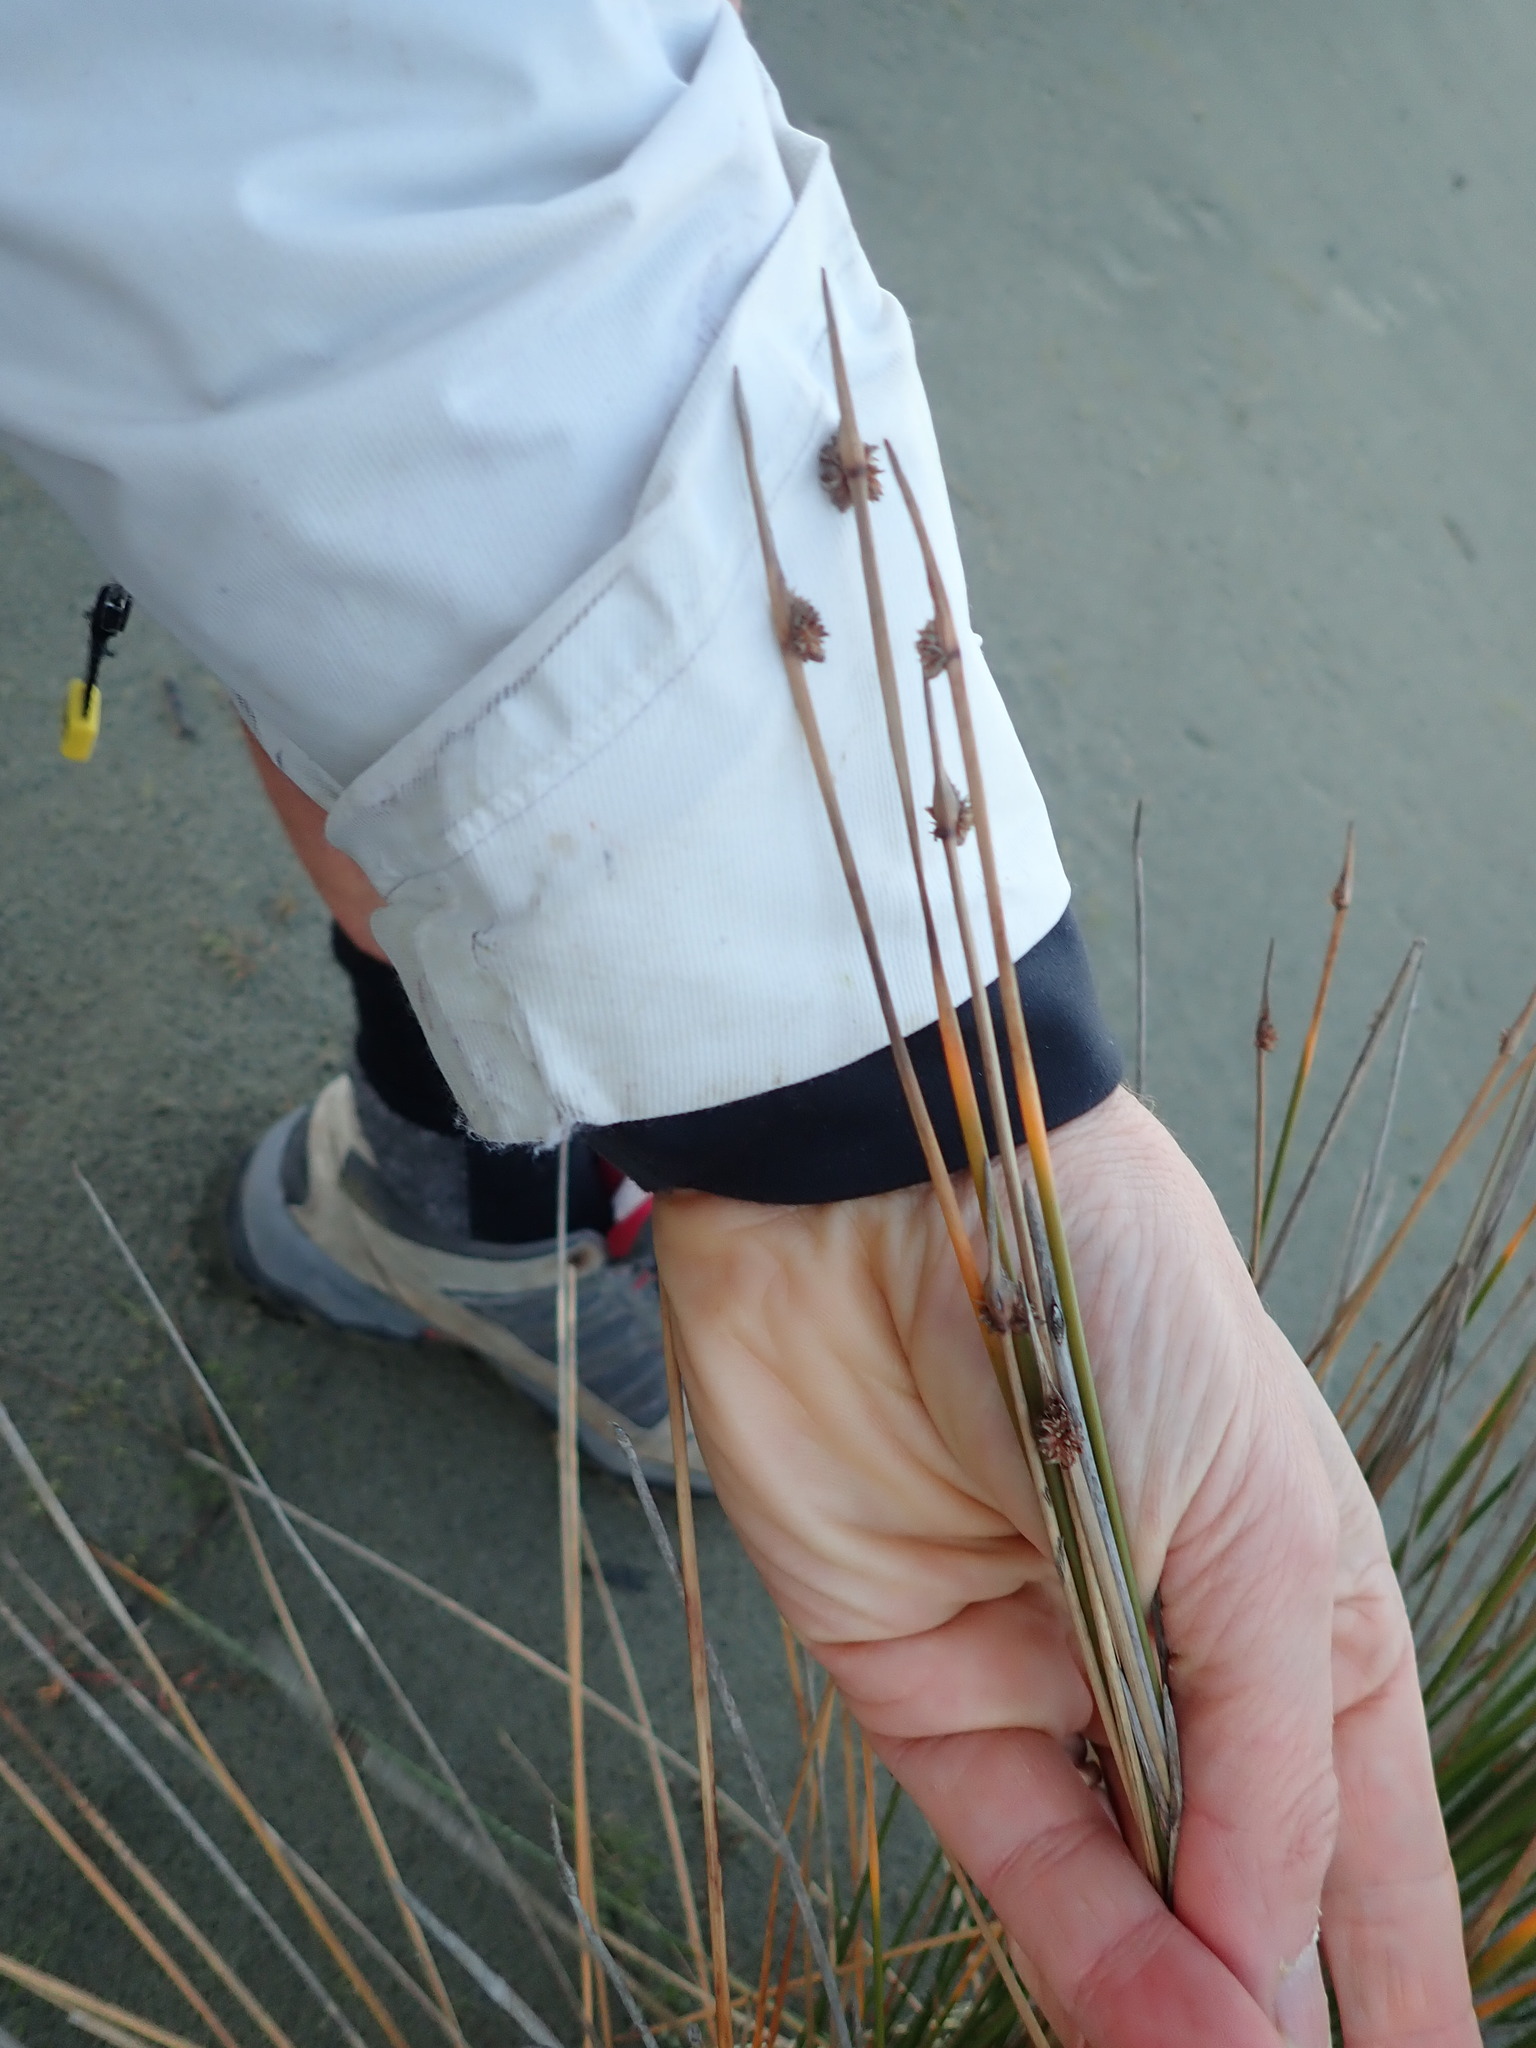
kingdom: Plantae
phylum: Tracheophyta
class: Liliopsida
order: Poales
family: Cyperaceae
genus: Ficinia
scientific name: Ficinia nodosa
